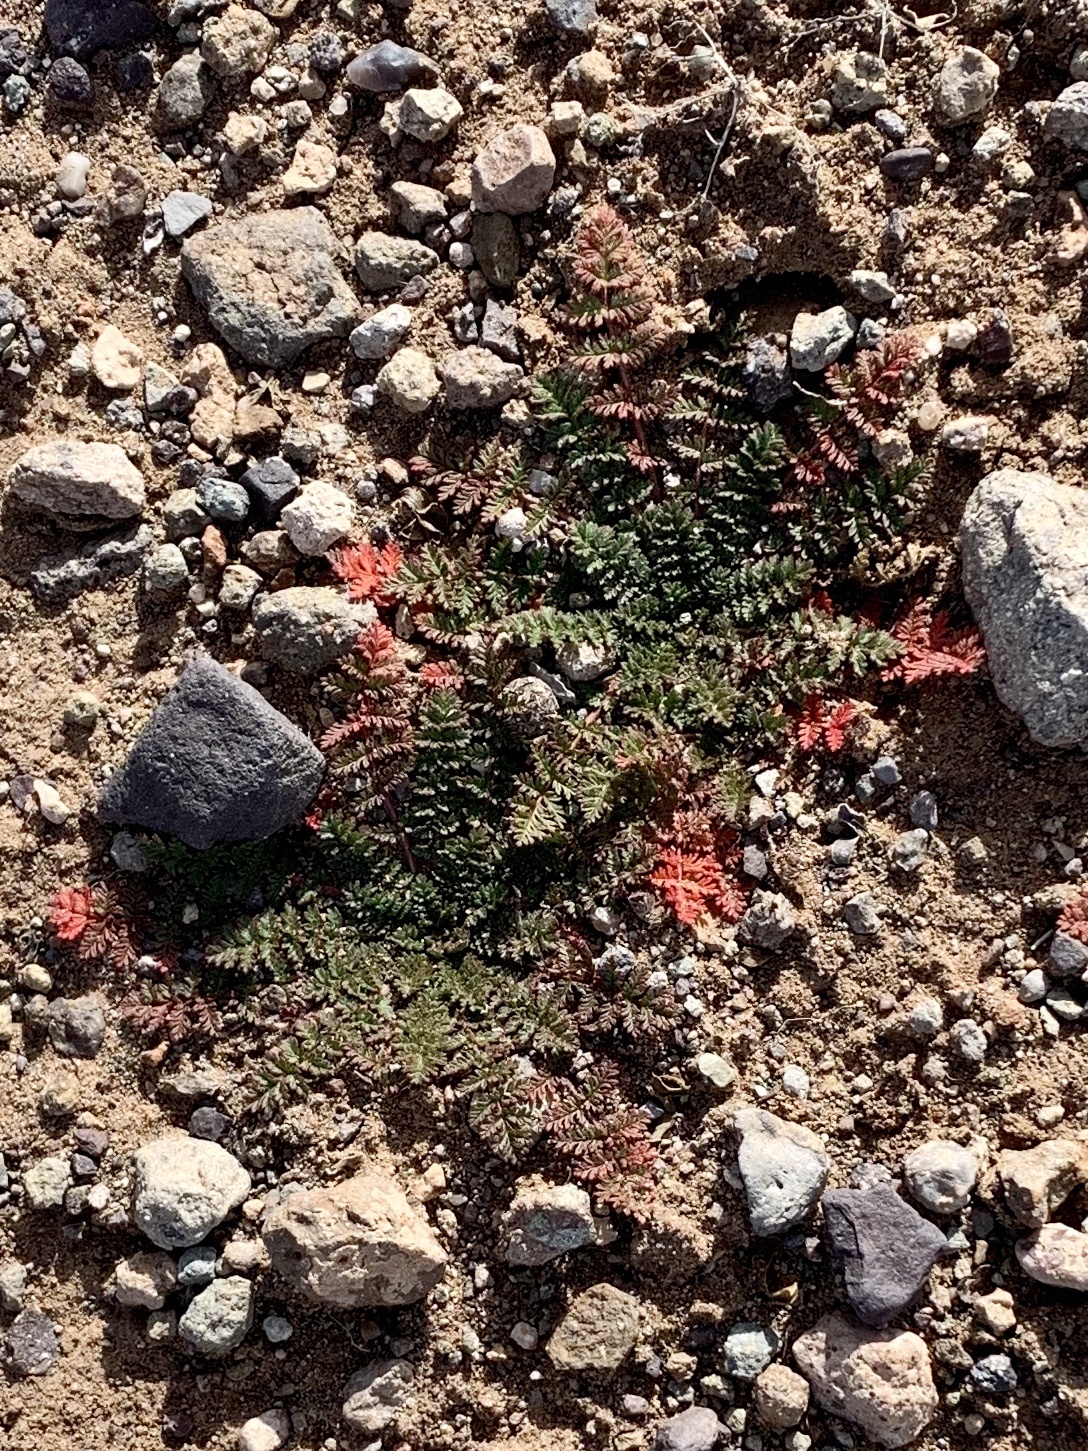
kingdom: Plantae
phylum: Tracheophyta
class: Magnoliopsida
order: Geraniales
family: Geraniaceae
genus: Erodium
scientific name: Erodium cicutarium
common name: Common stork's-bill
